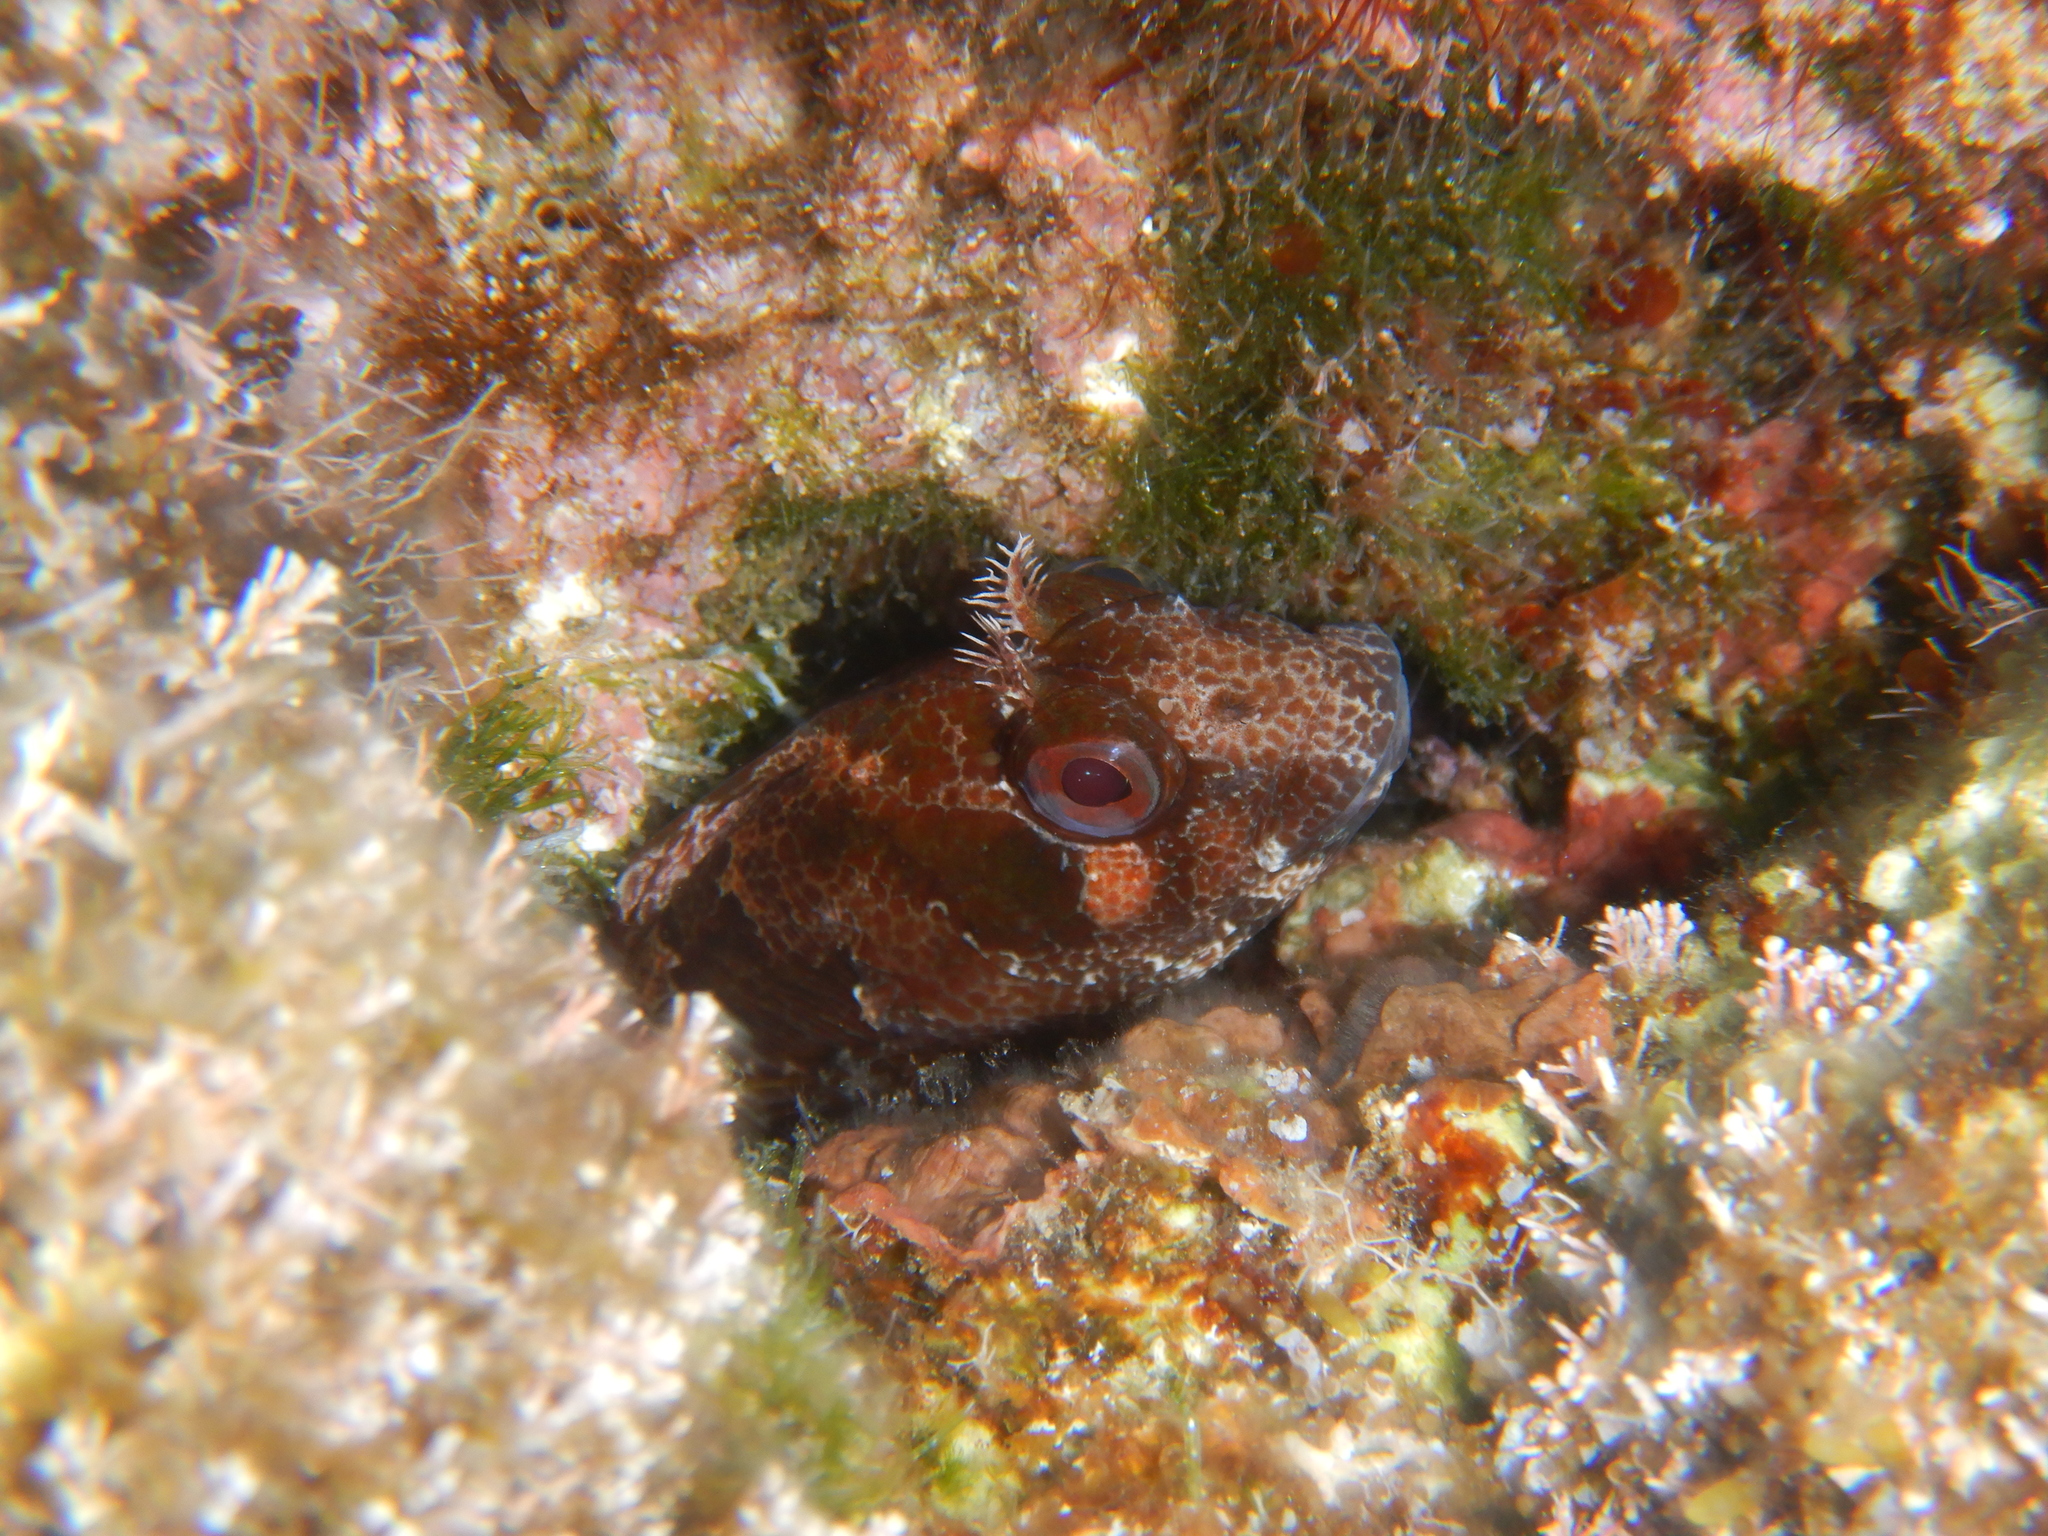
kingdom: Animalia
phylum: Chordata
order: Perciformes
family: Blenniidae
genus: Parablennius
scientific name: Parablennius gattorugine
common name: Tompot blenny
